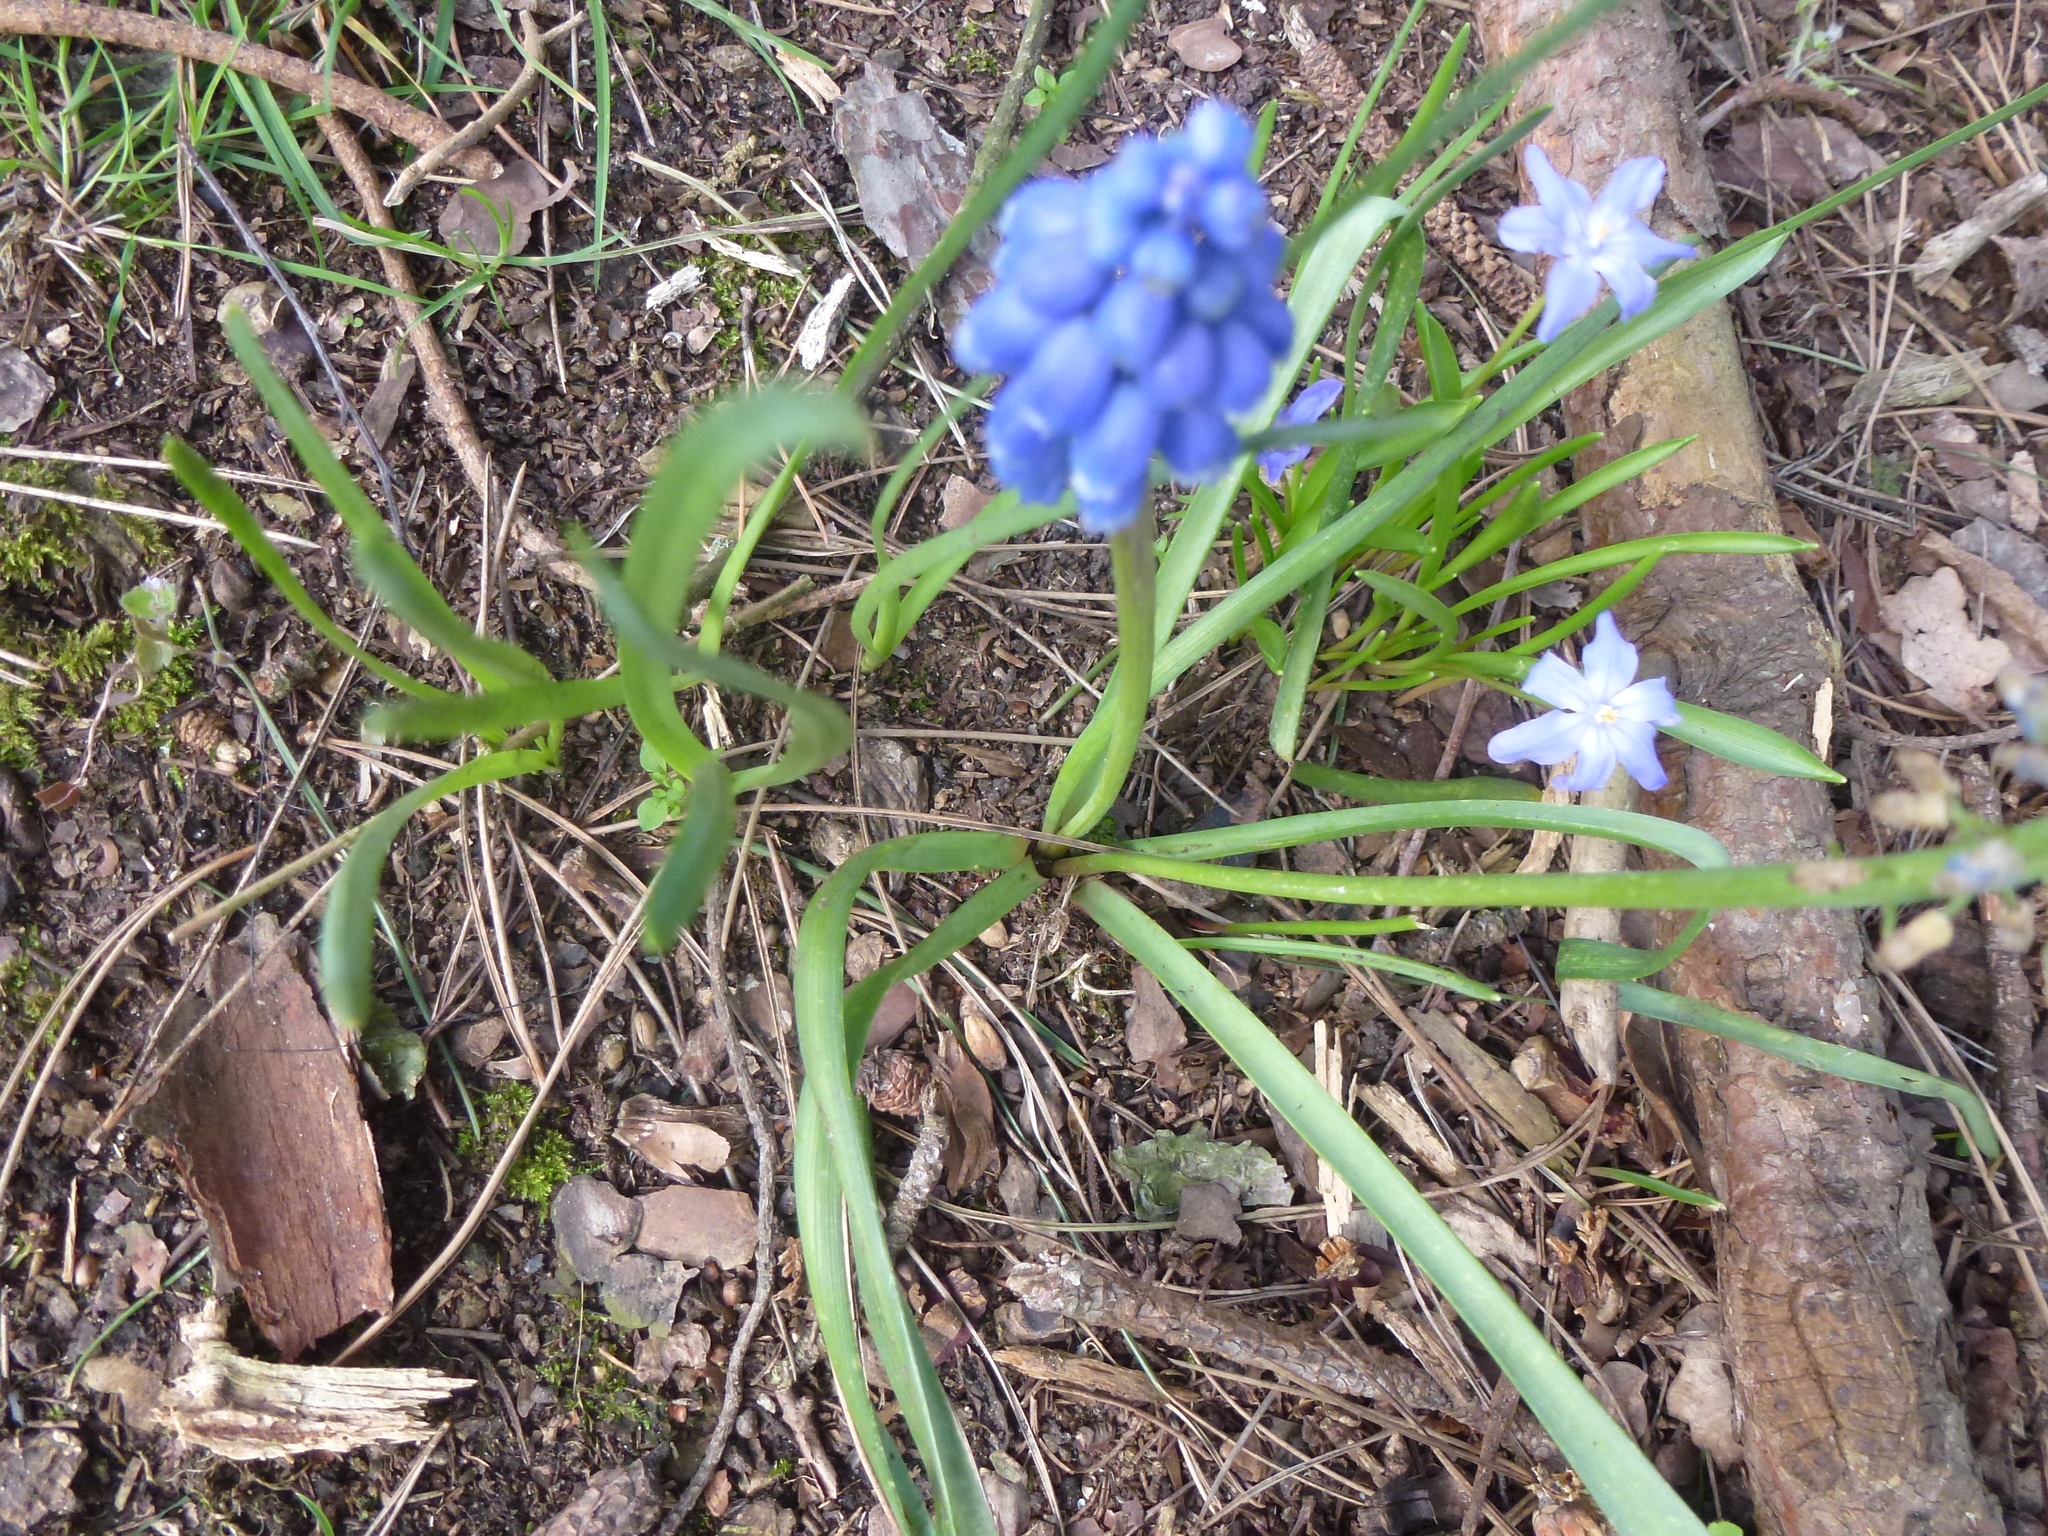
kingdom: Plantae
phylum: Tracheophyta
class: Liliopsida
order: Asparagales
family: Asparagaceae
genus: Muscari
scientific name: Muscari armeniacum
